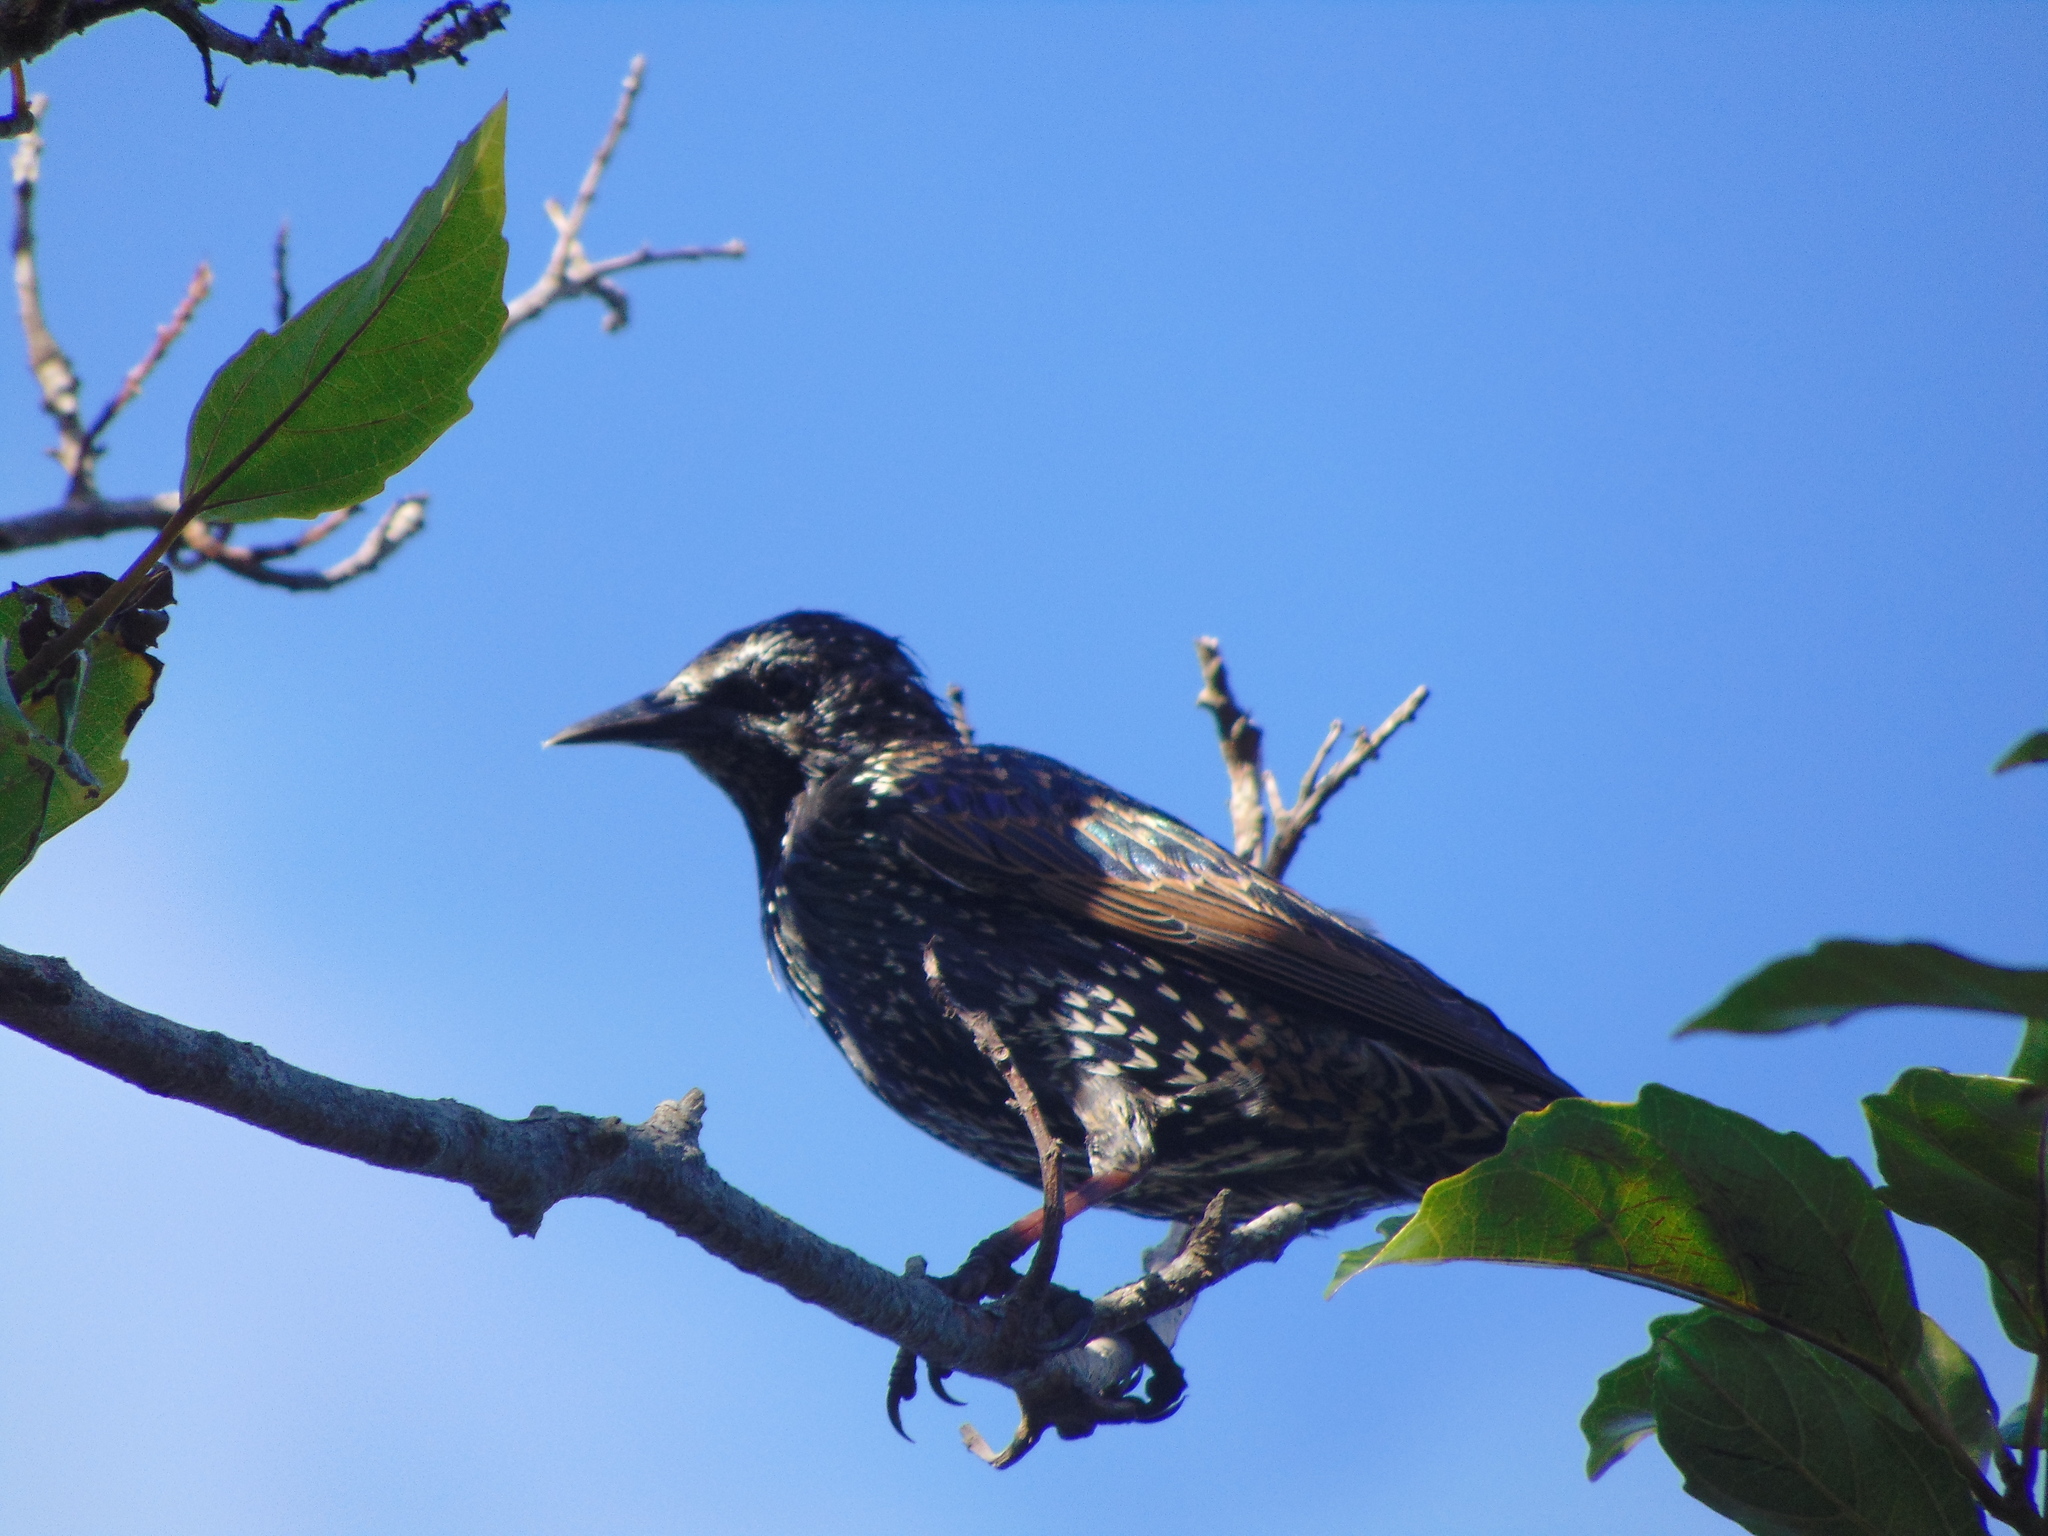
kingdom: Animalia
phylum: Chordata
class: Aves
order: Passeriformes
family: Sturnidae
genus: Sturnus
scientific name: Sturnus vulgaris
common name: Common starling
